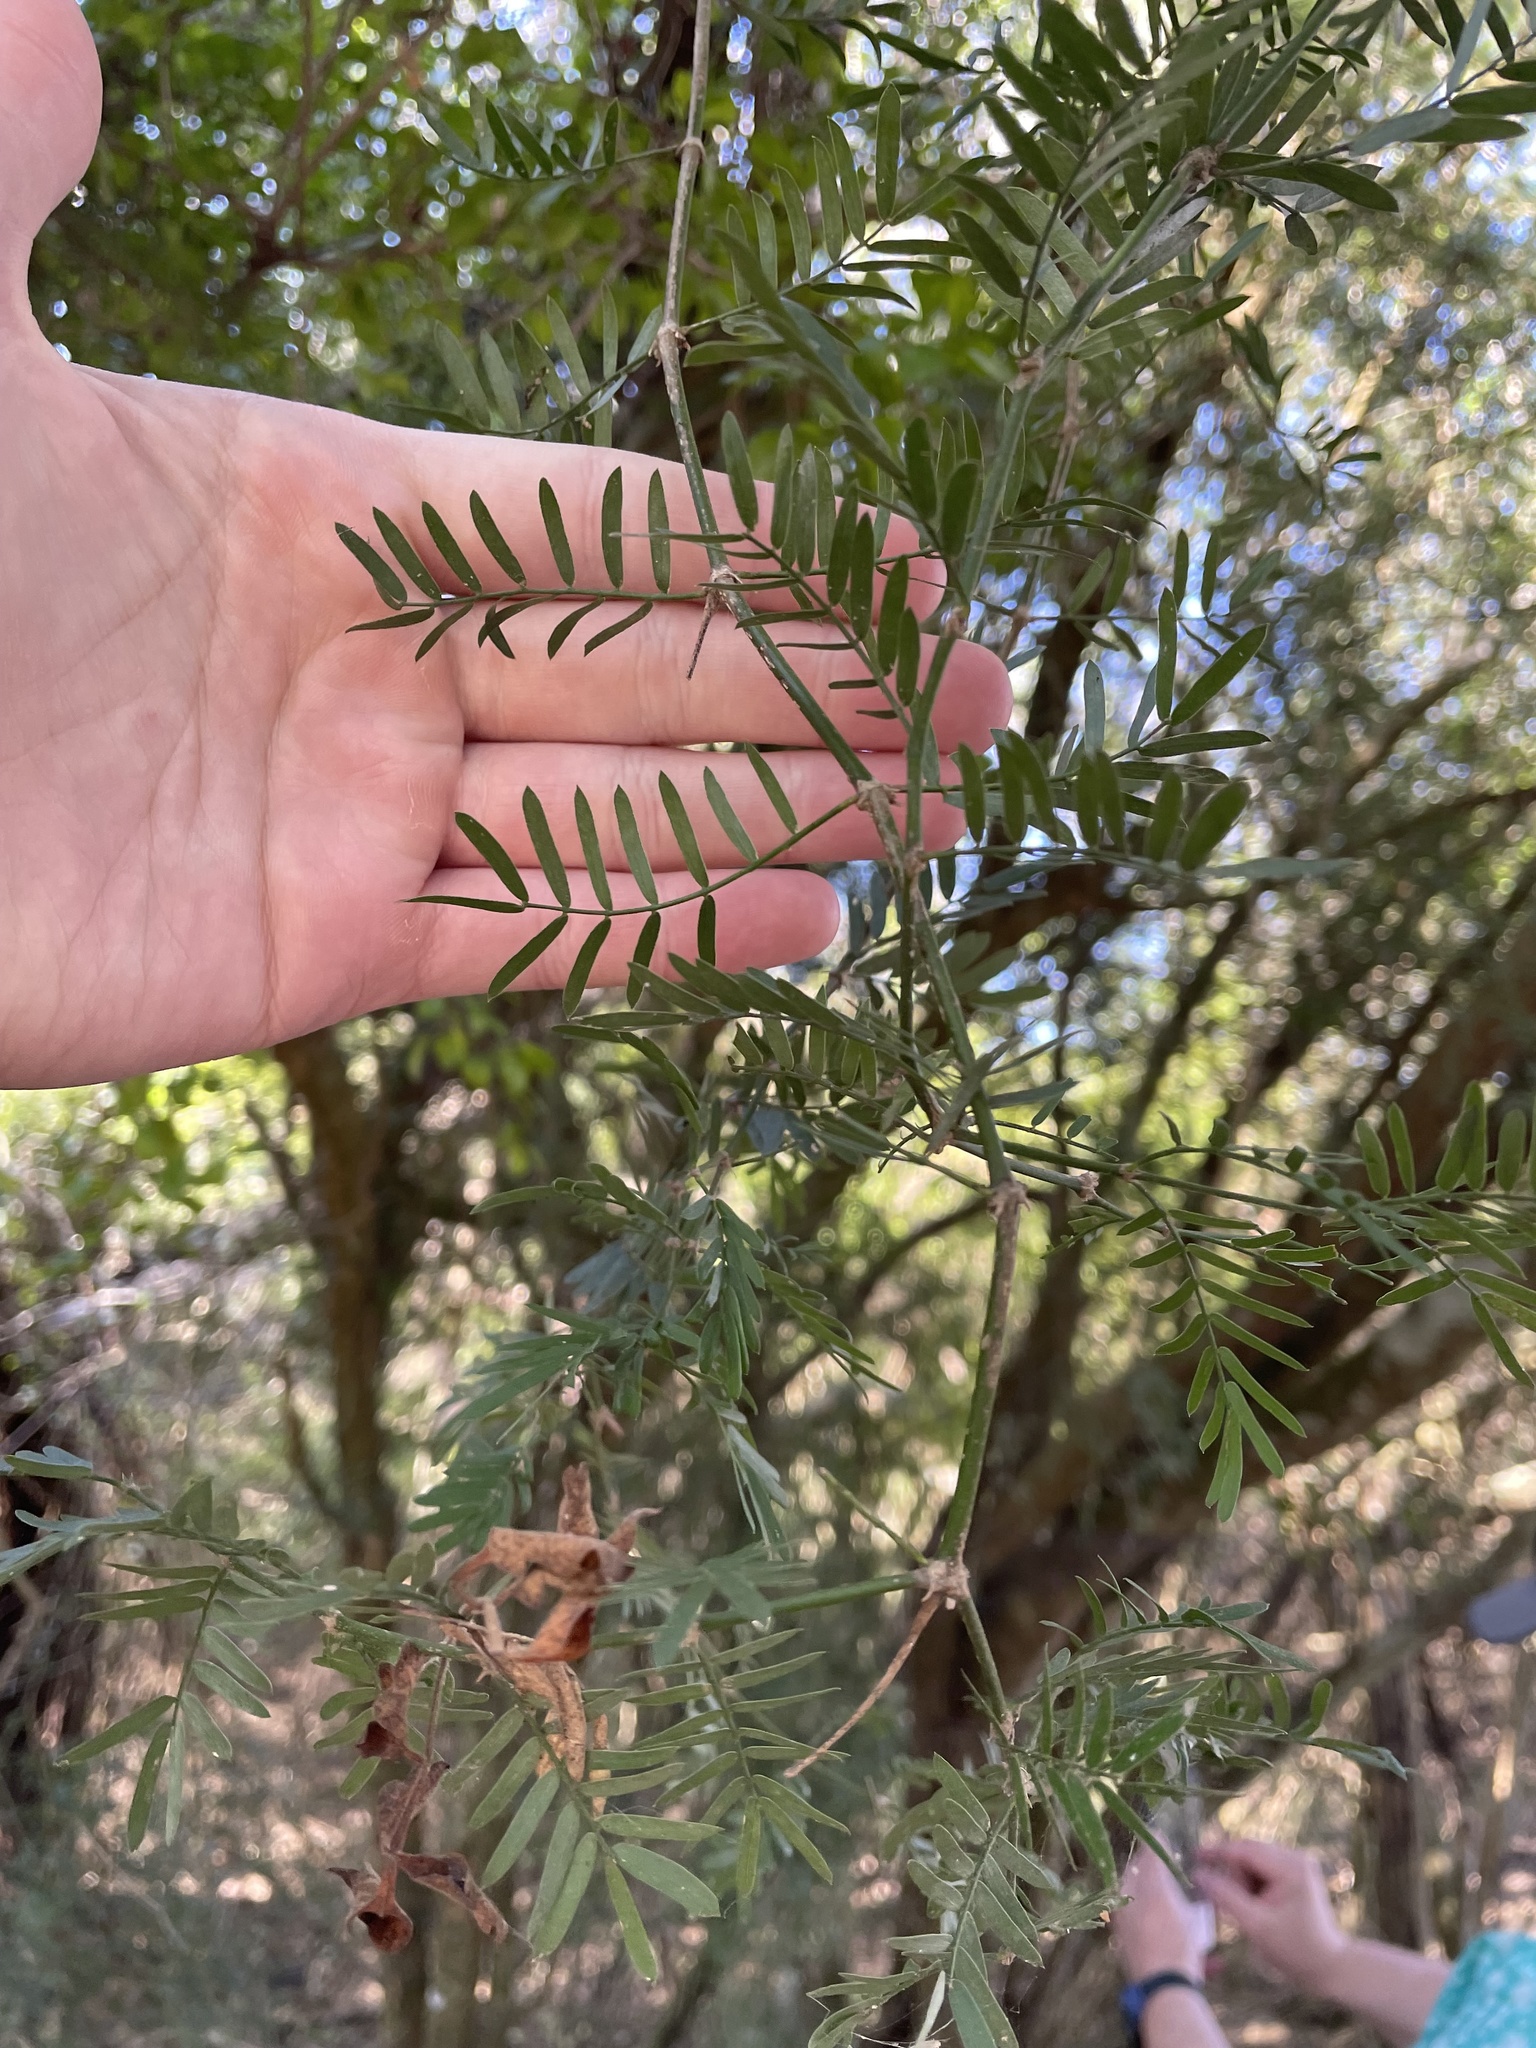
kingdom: Plantae
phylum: Tracheophyta
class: Magnoliopsida
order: Zygophyllales
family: Zygophyllaceae
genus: Porlieria
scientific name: Porlieria angustifolia
